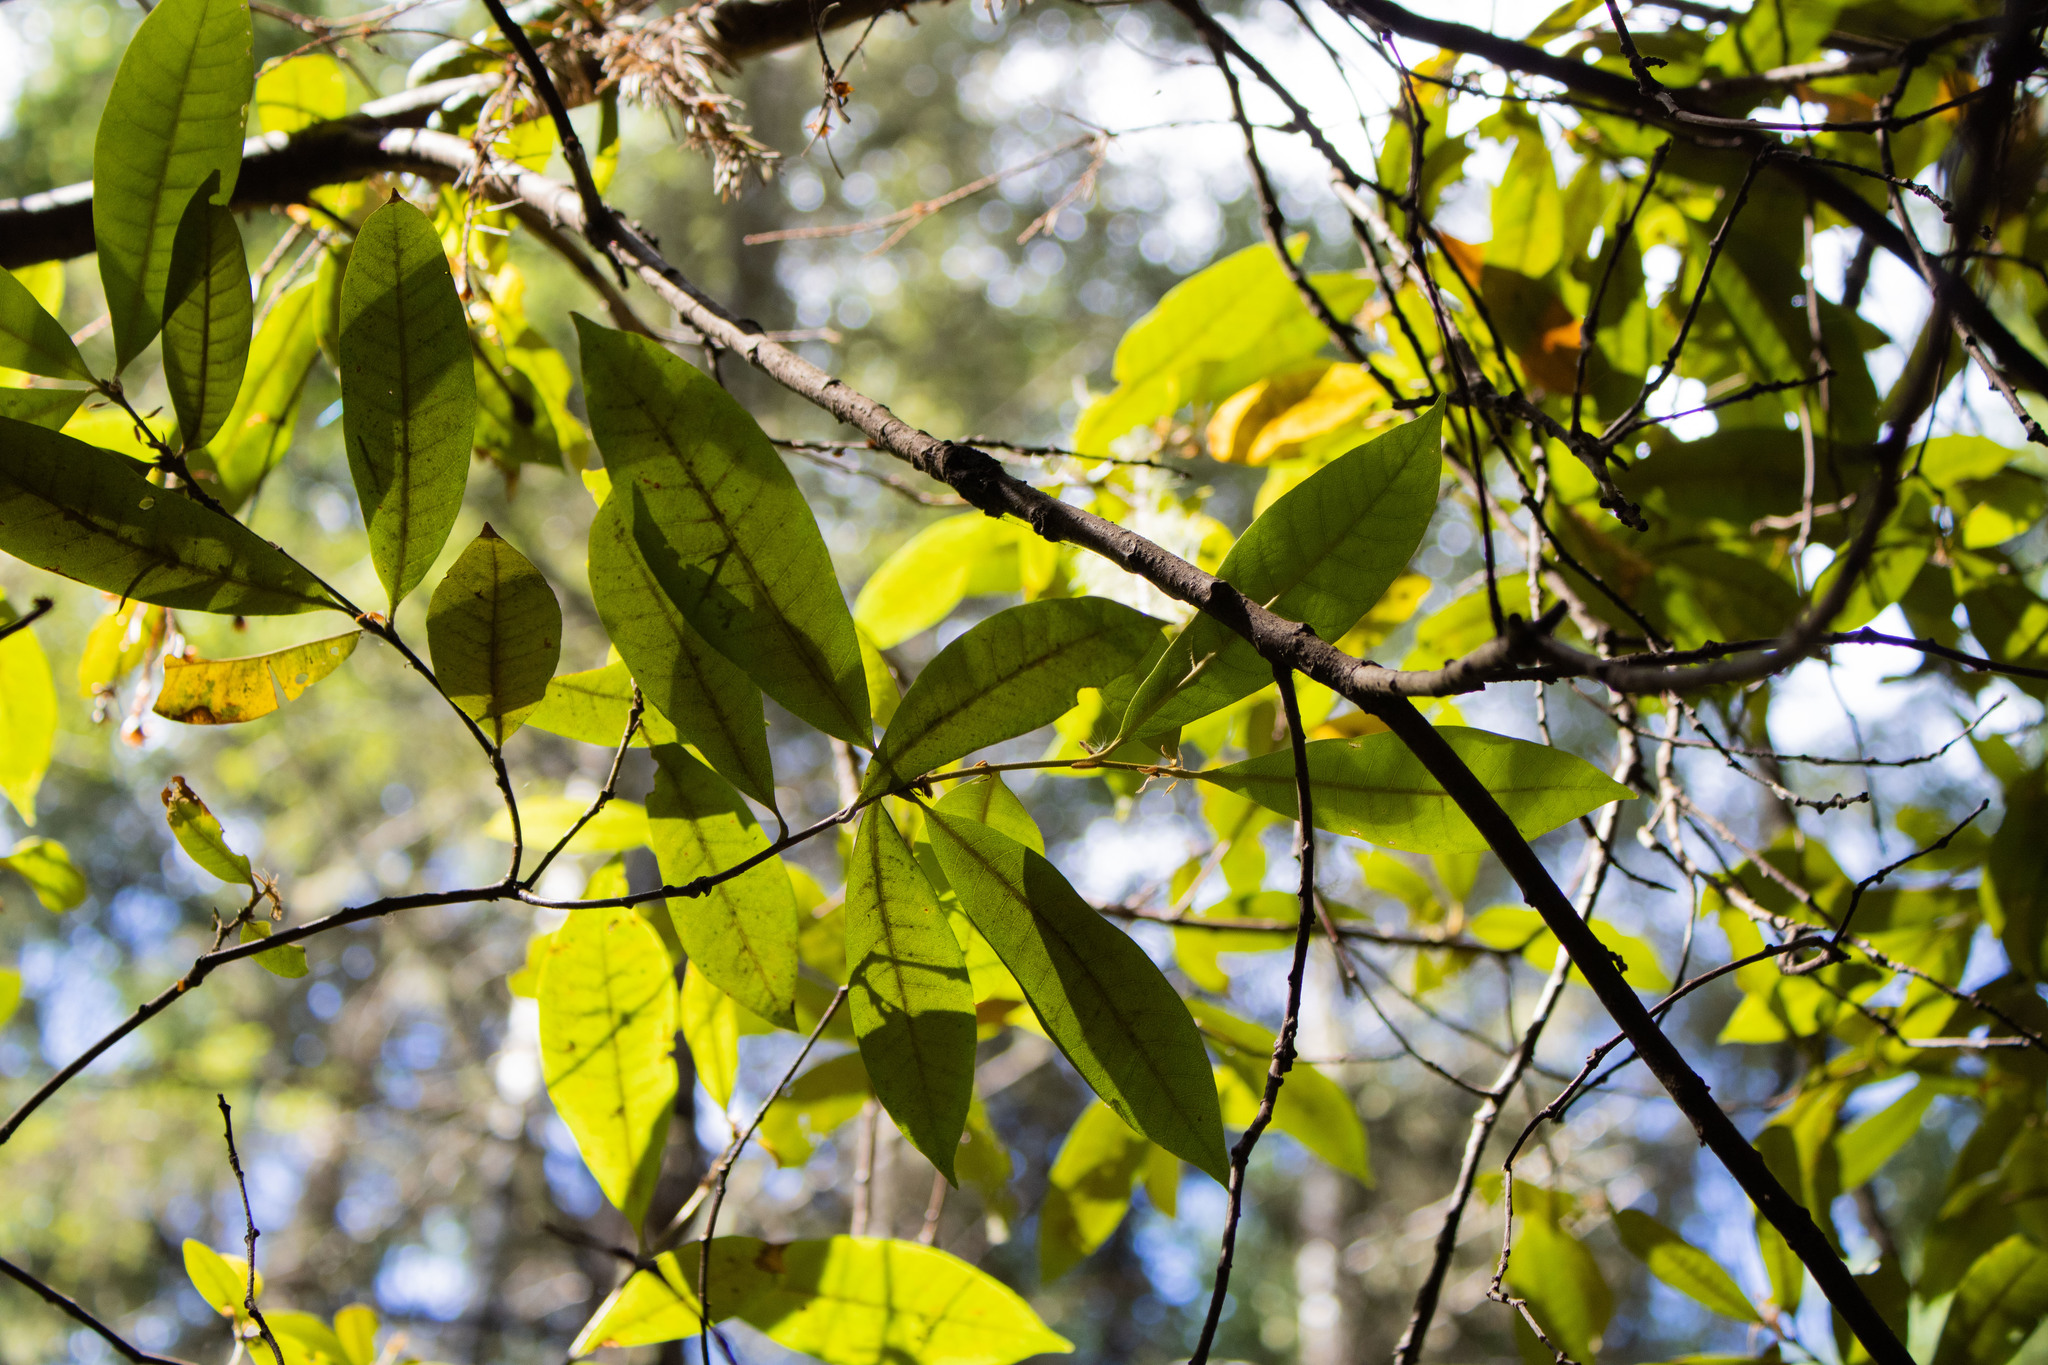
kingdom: Plantae
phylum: Tracheophyta
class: Magnoliopsida
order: Fagales
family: Fagaceae
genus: Chrysolepis
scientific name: Chrysolepis chrysophylla
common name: Giant chinquapin
